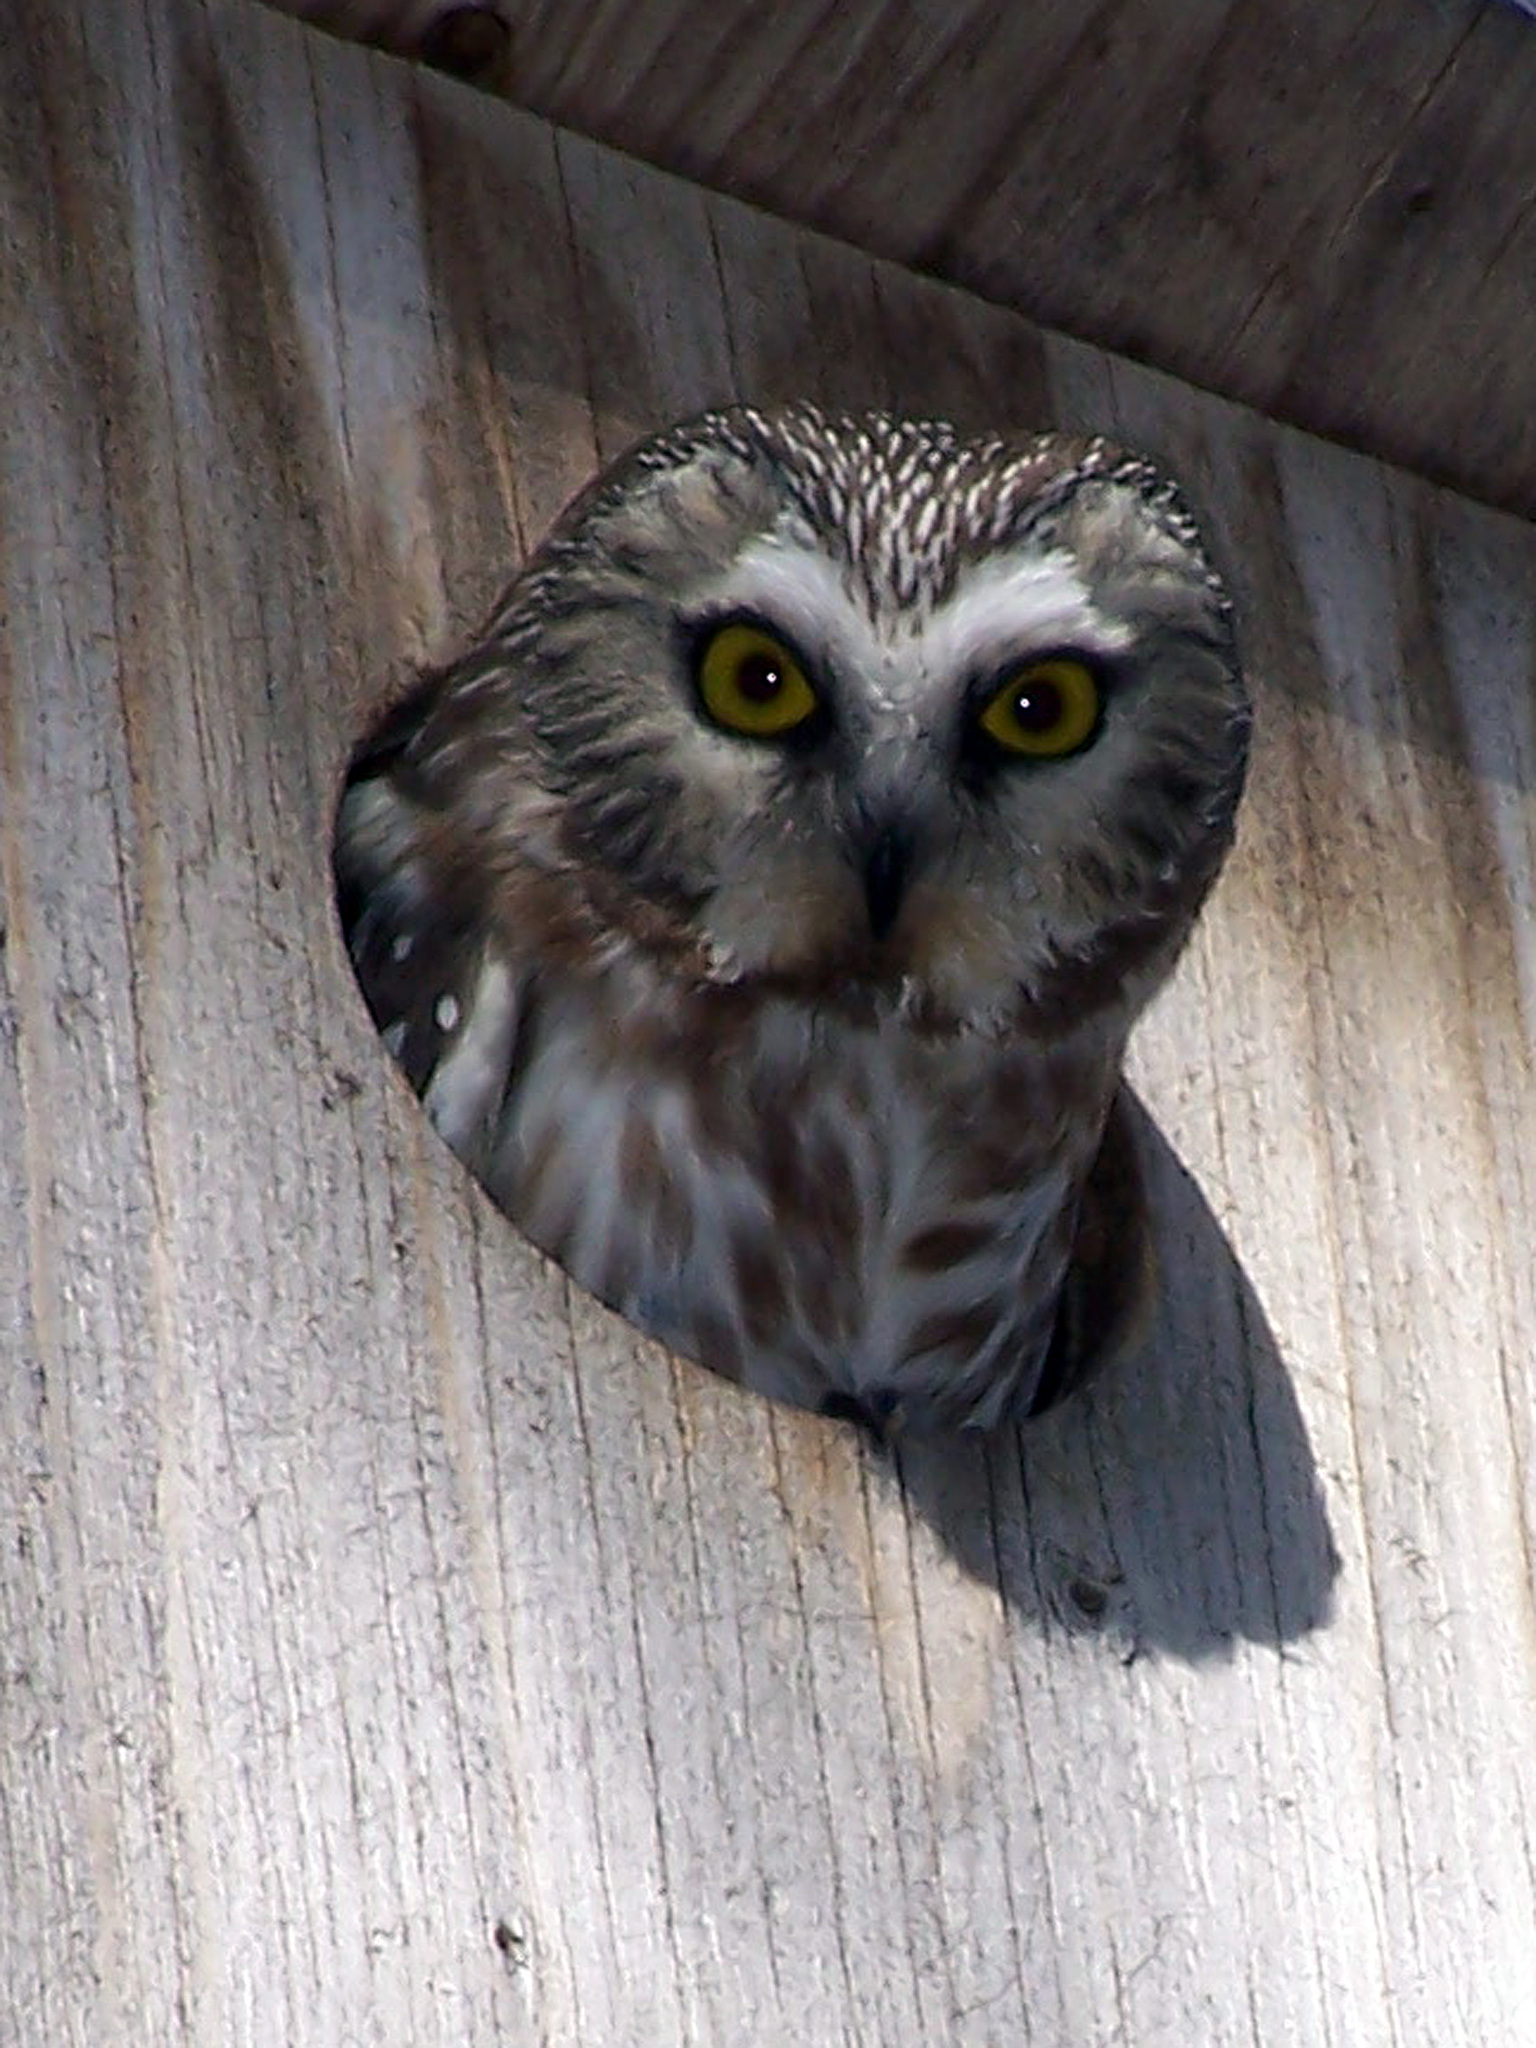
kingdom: Animalia
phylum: Chordata
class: Aves
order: Strigiformes
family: Strigidae
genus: Aegolius
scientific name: Aegolius acadicus
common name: Northern saw-whet owl
